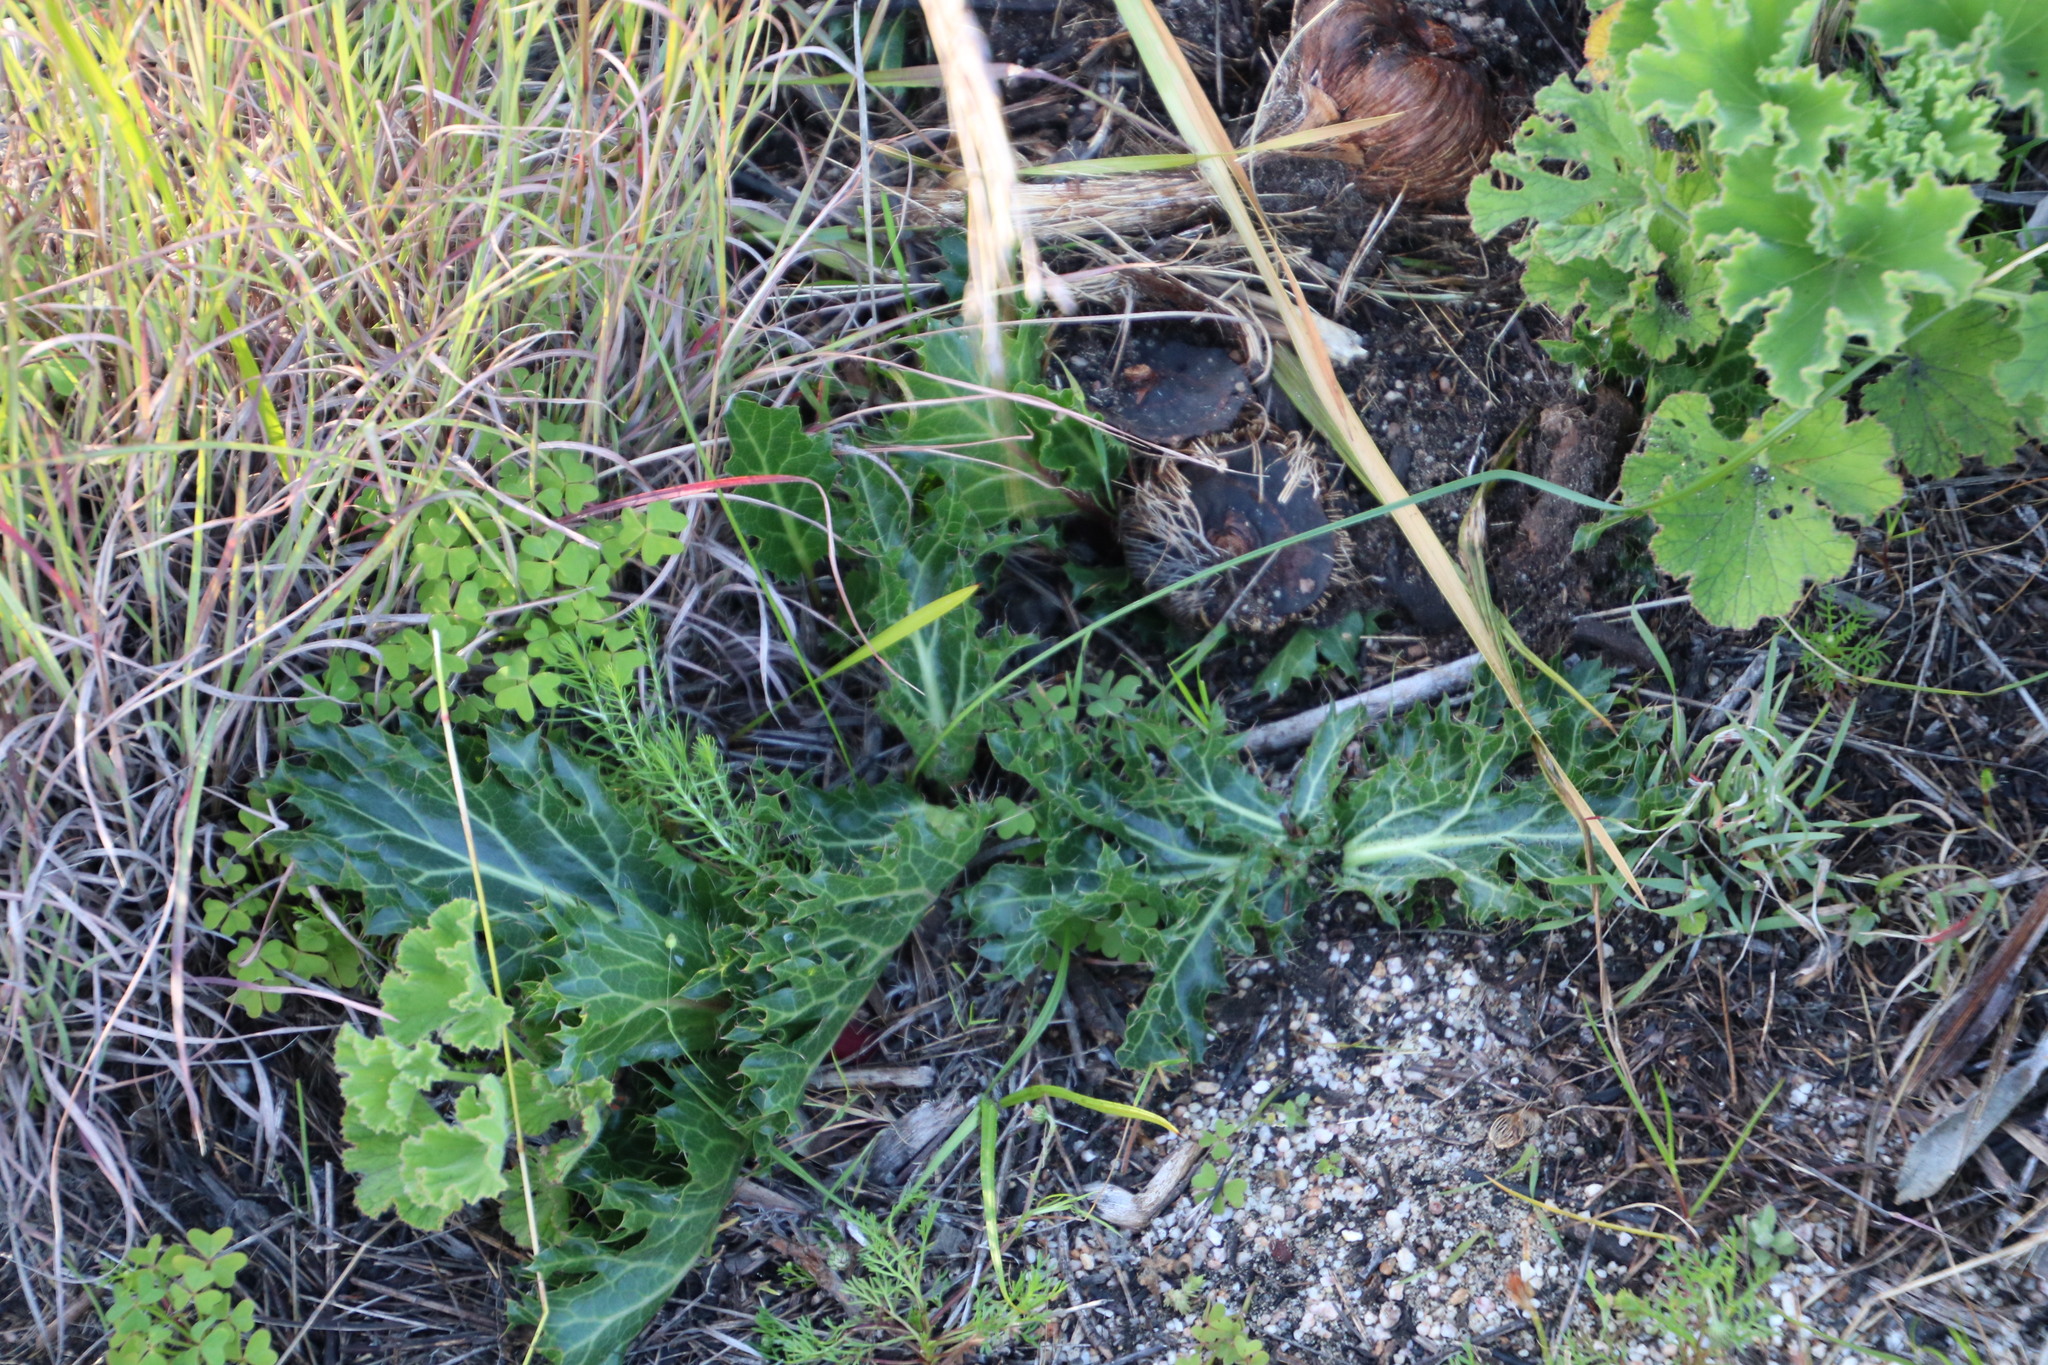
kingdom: Plantae
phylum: Tracheophyta
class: Magnoliopsida
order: Apiales
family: Apiaceae
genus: Lichtensteinia
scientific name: Lichtensteinia lacera
